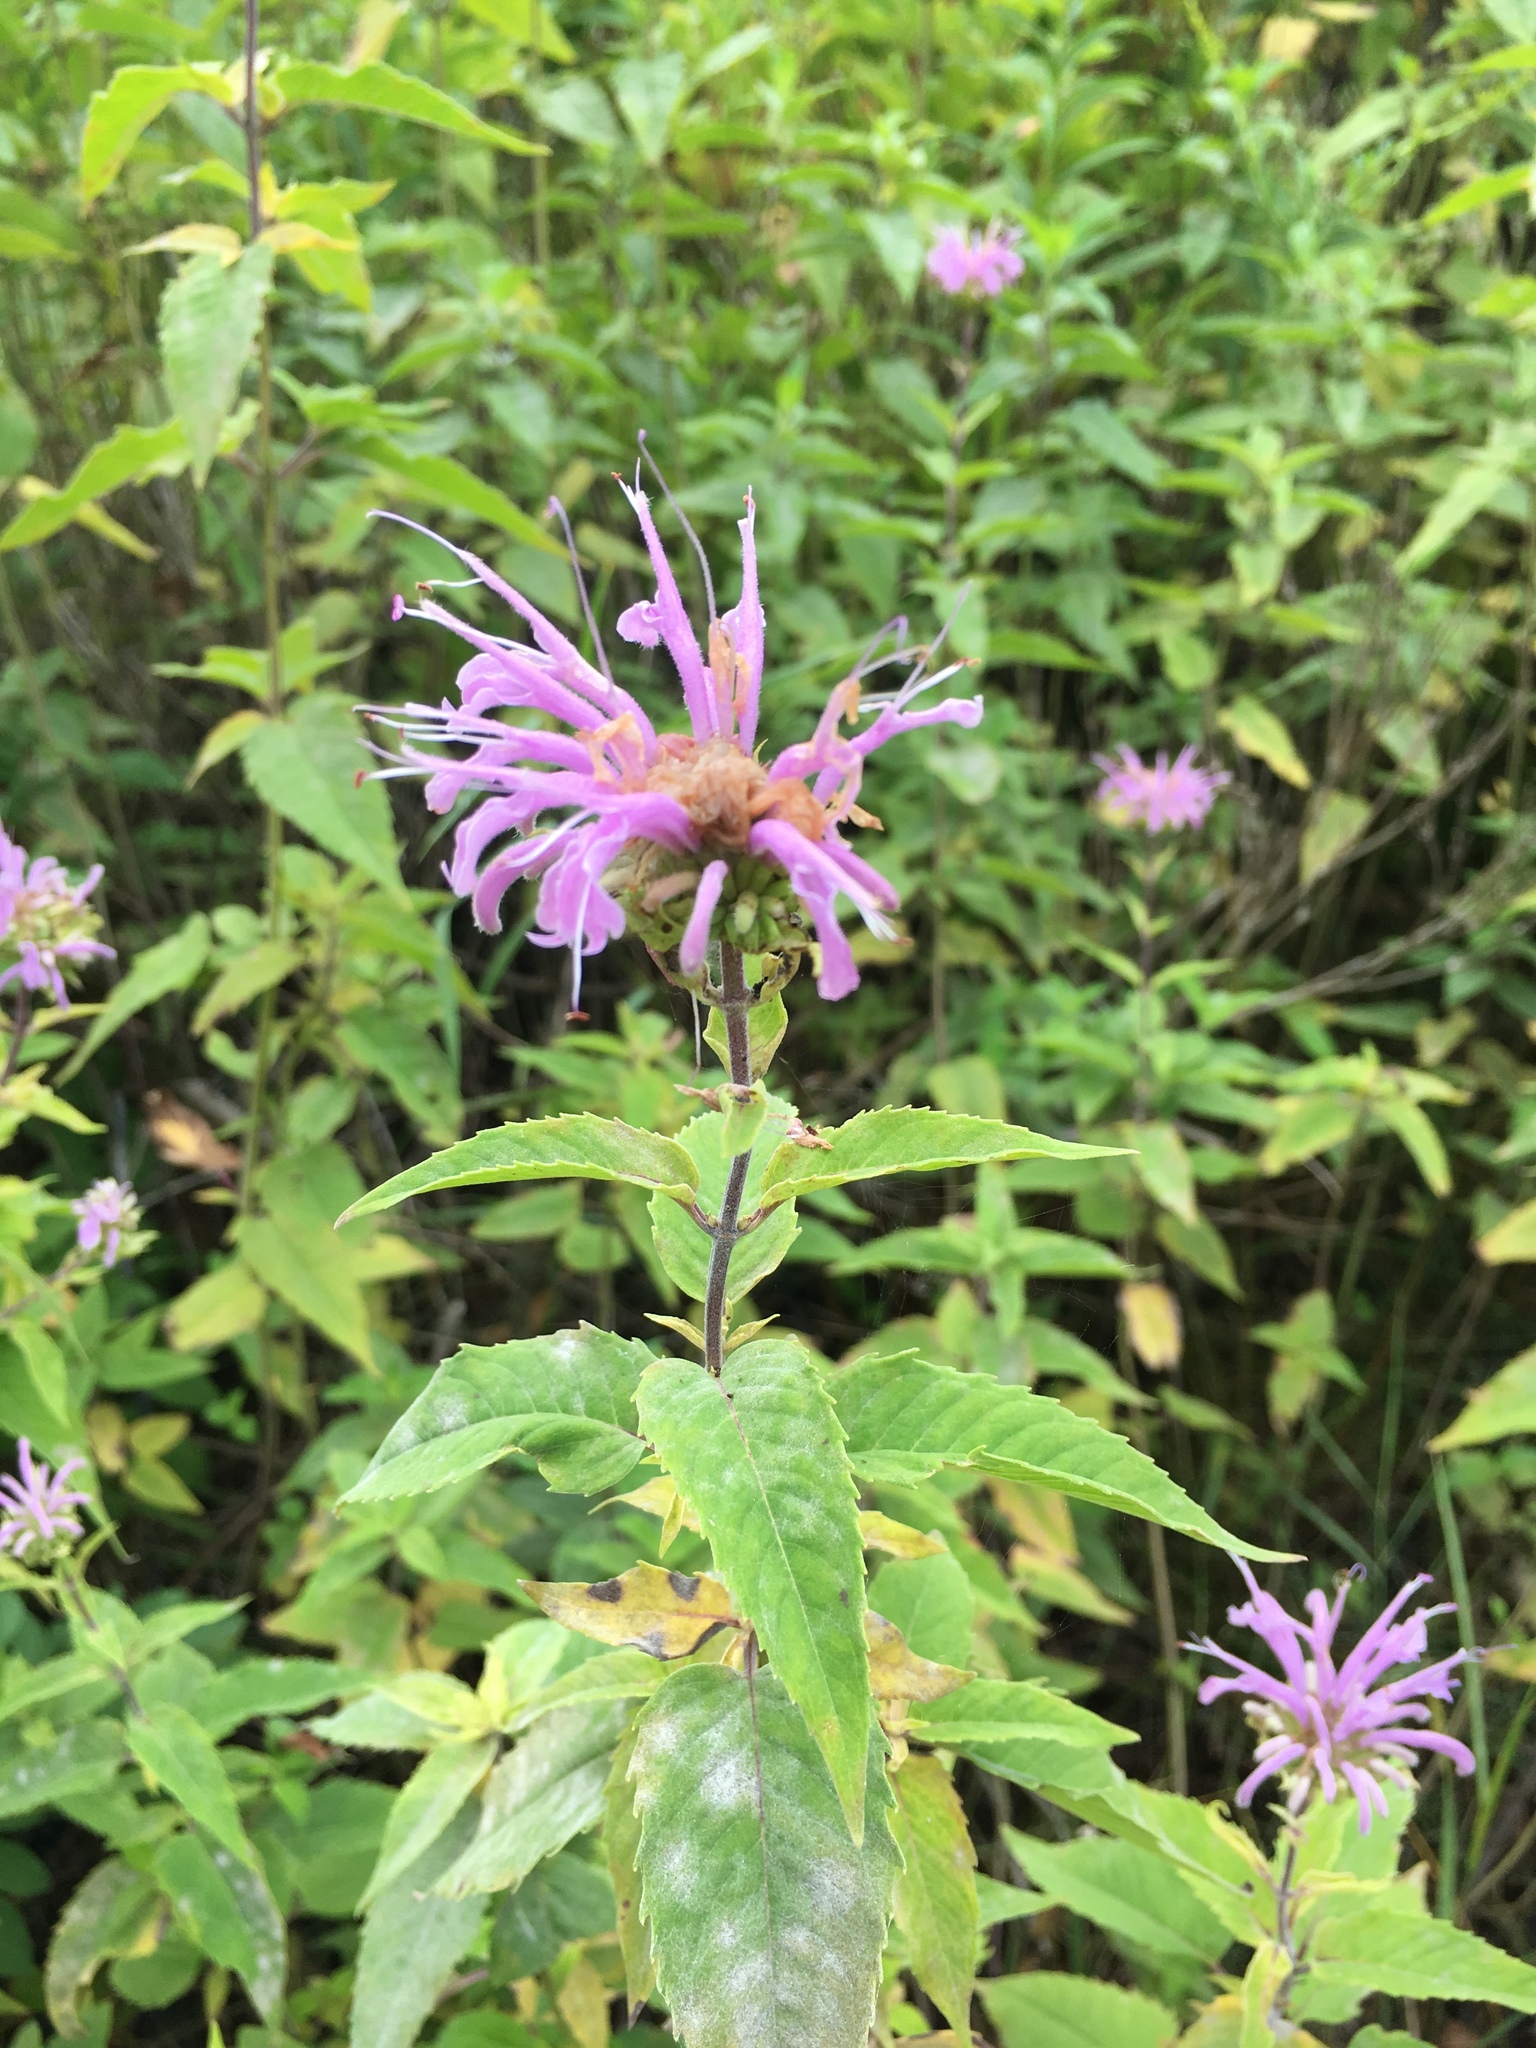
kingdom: Plantae
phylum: Tracheophyta
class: Magnoliopsida
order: Lamiales
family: Lamiaceae
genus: Monarda
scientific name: Monarda fistulosa
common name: Purple beebalm
